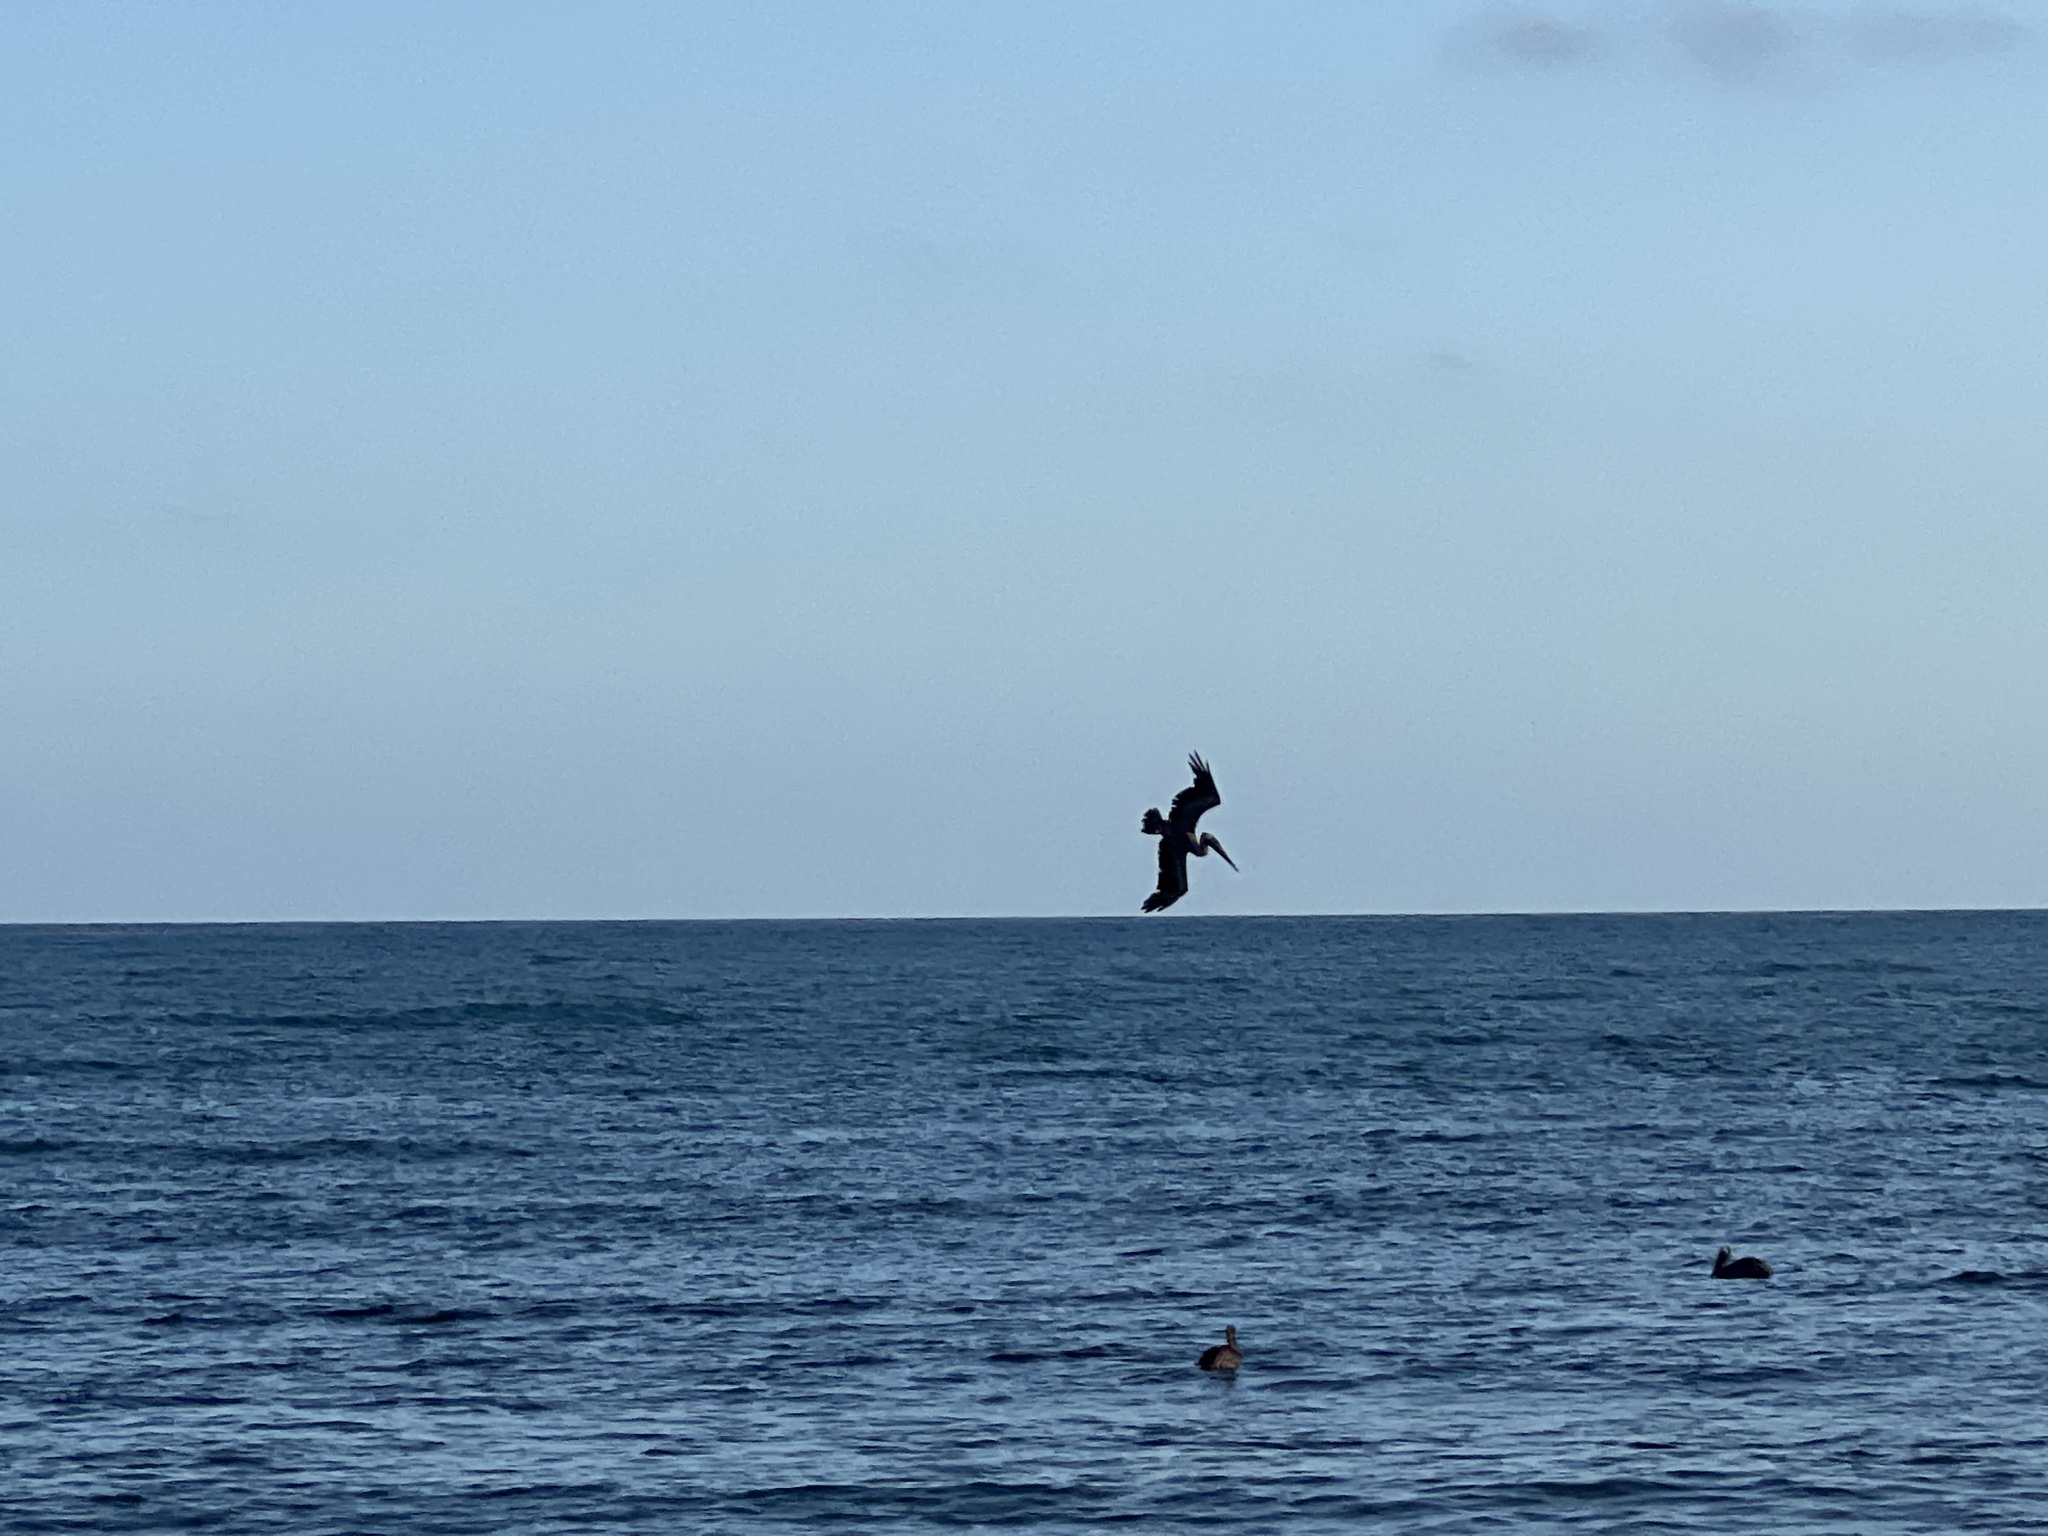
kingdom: Animalia
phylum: Chordata
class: Aves
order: Pelecaniformes
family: Pelecanidae
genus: Pelecanus
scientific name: Pelecanus occidentalis
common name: Brown pelican
